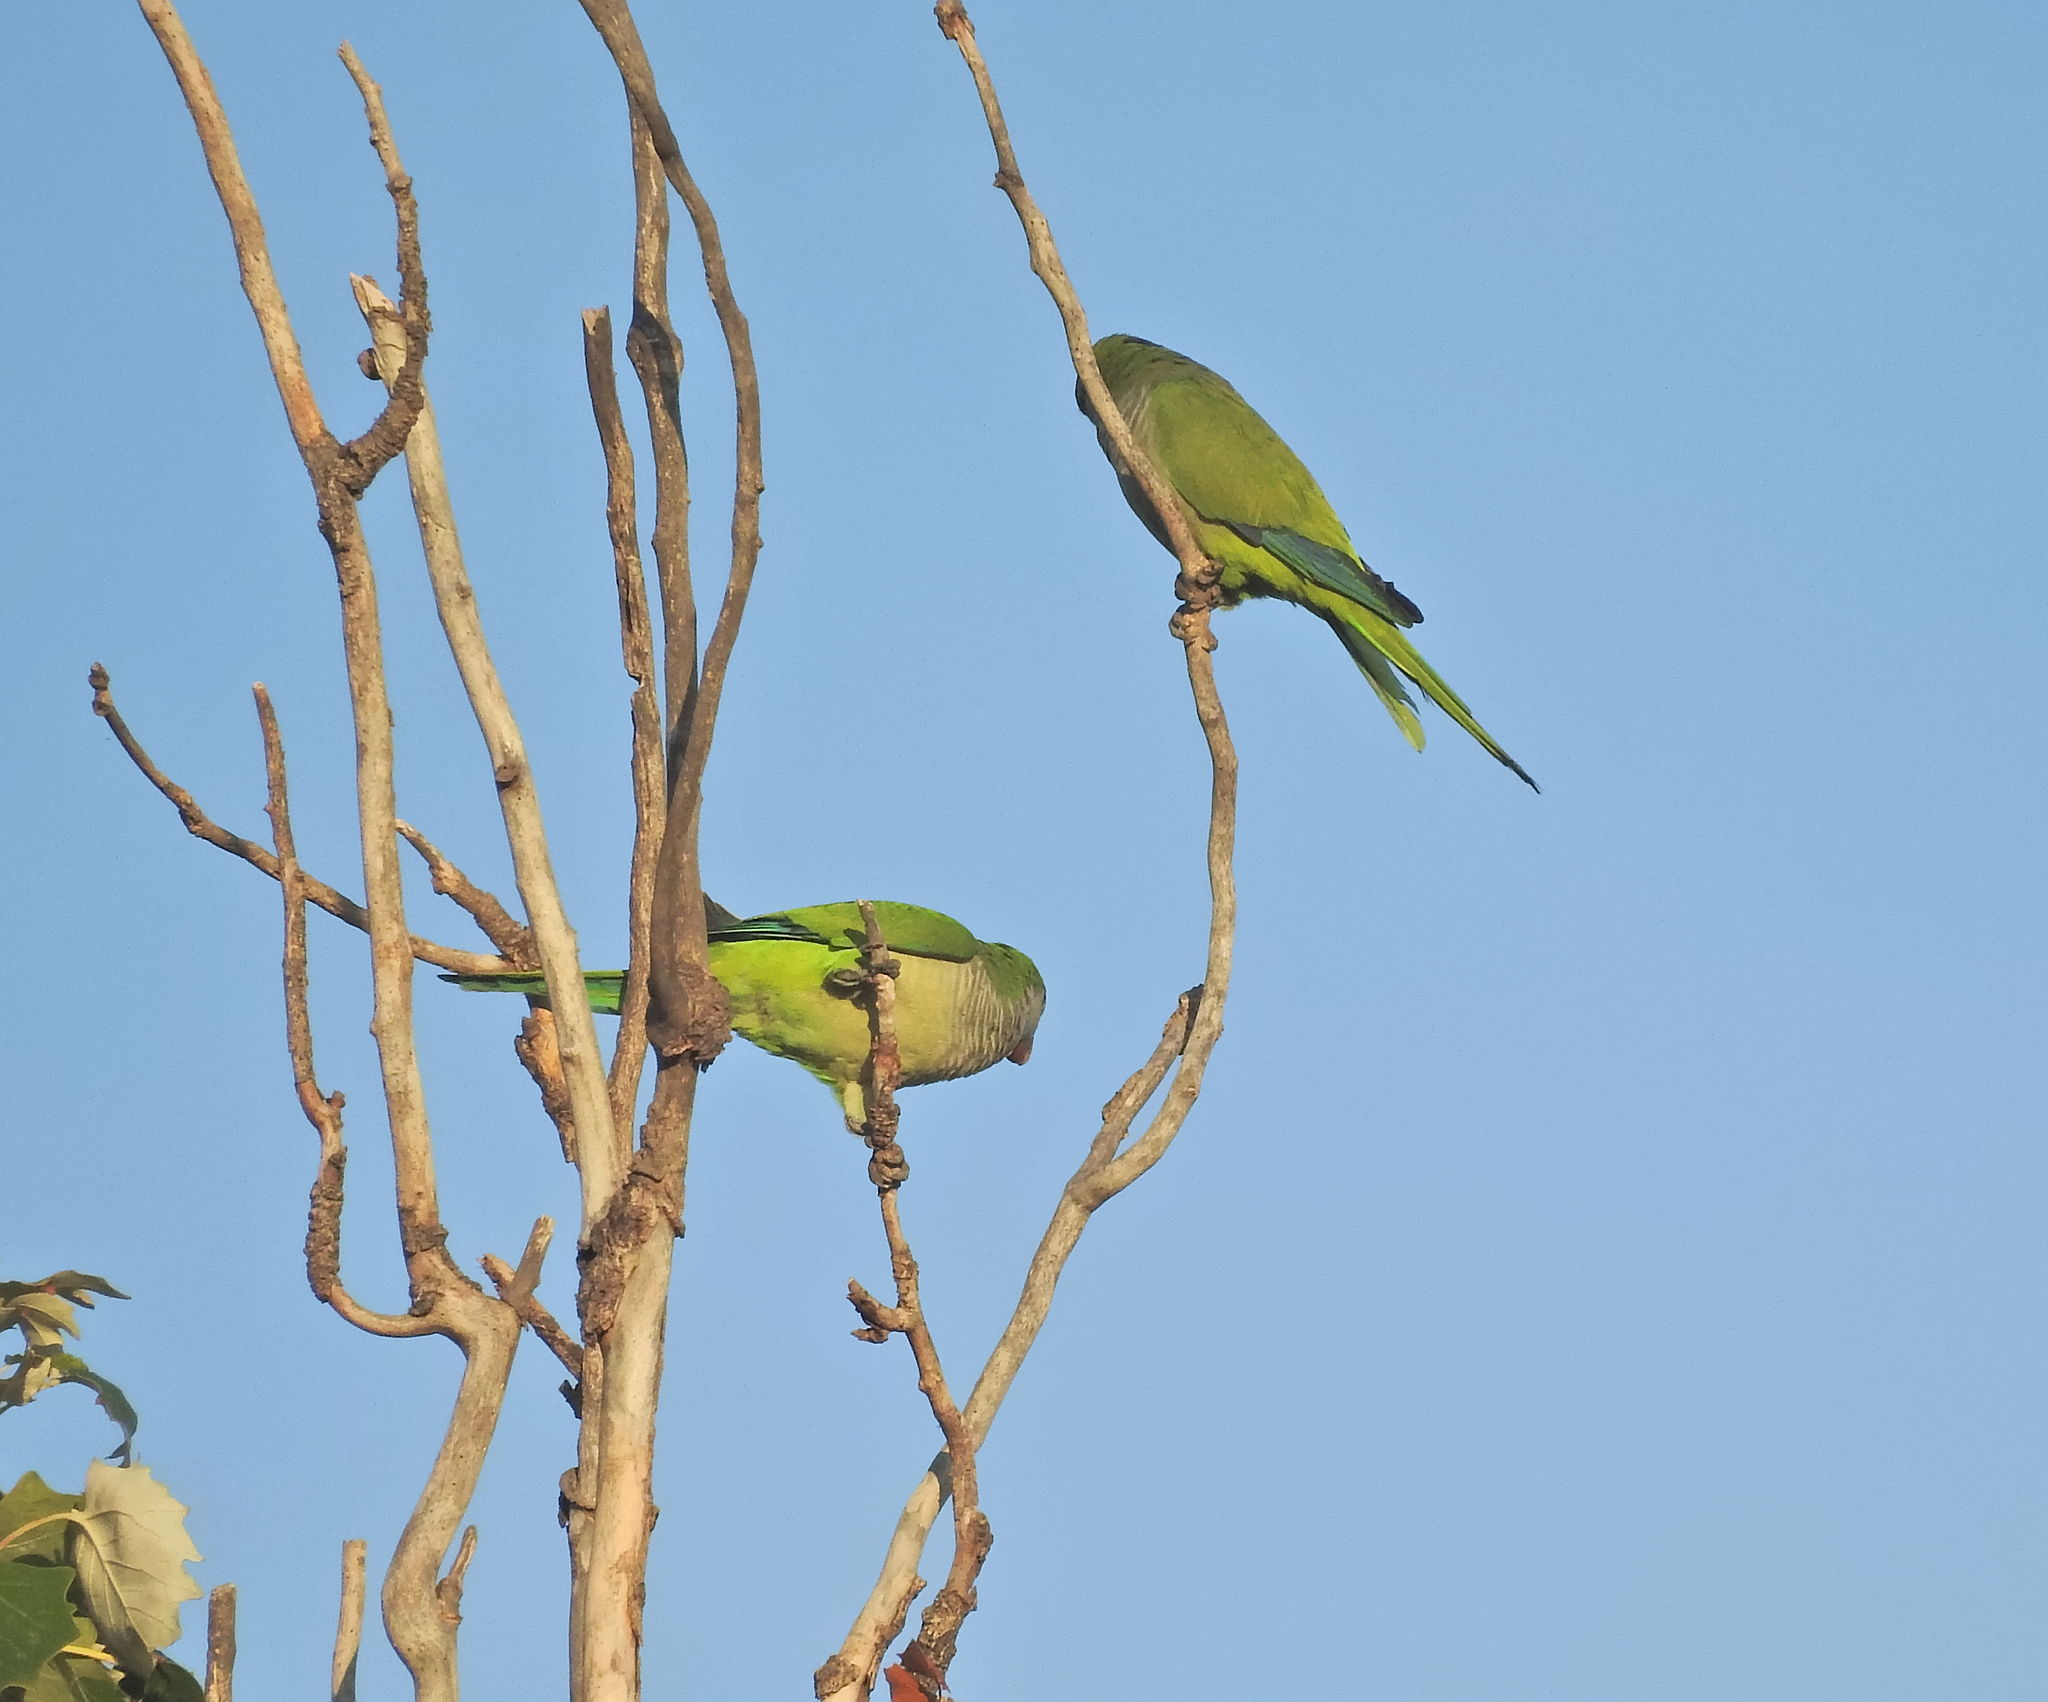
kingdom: Animalia
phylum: Chordata
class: Aves
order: Psittaciformes
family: Psittacidae
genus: Myiopsitta
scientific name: Myiopsitta monachus
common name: Monk parakeet
